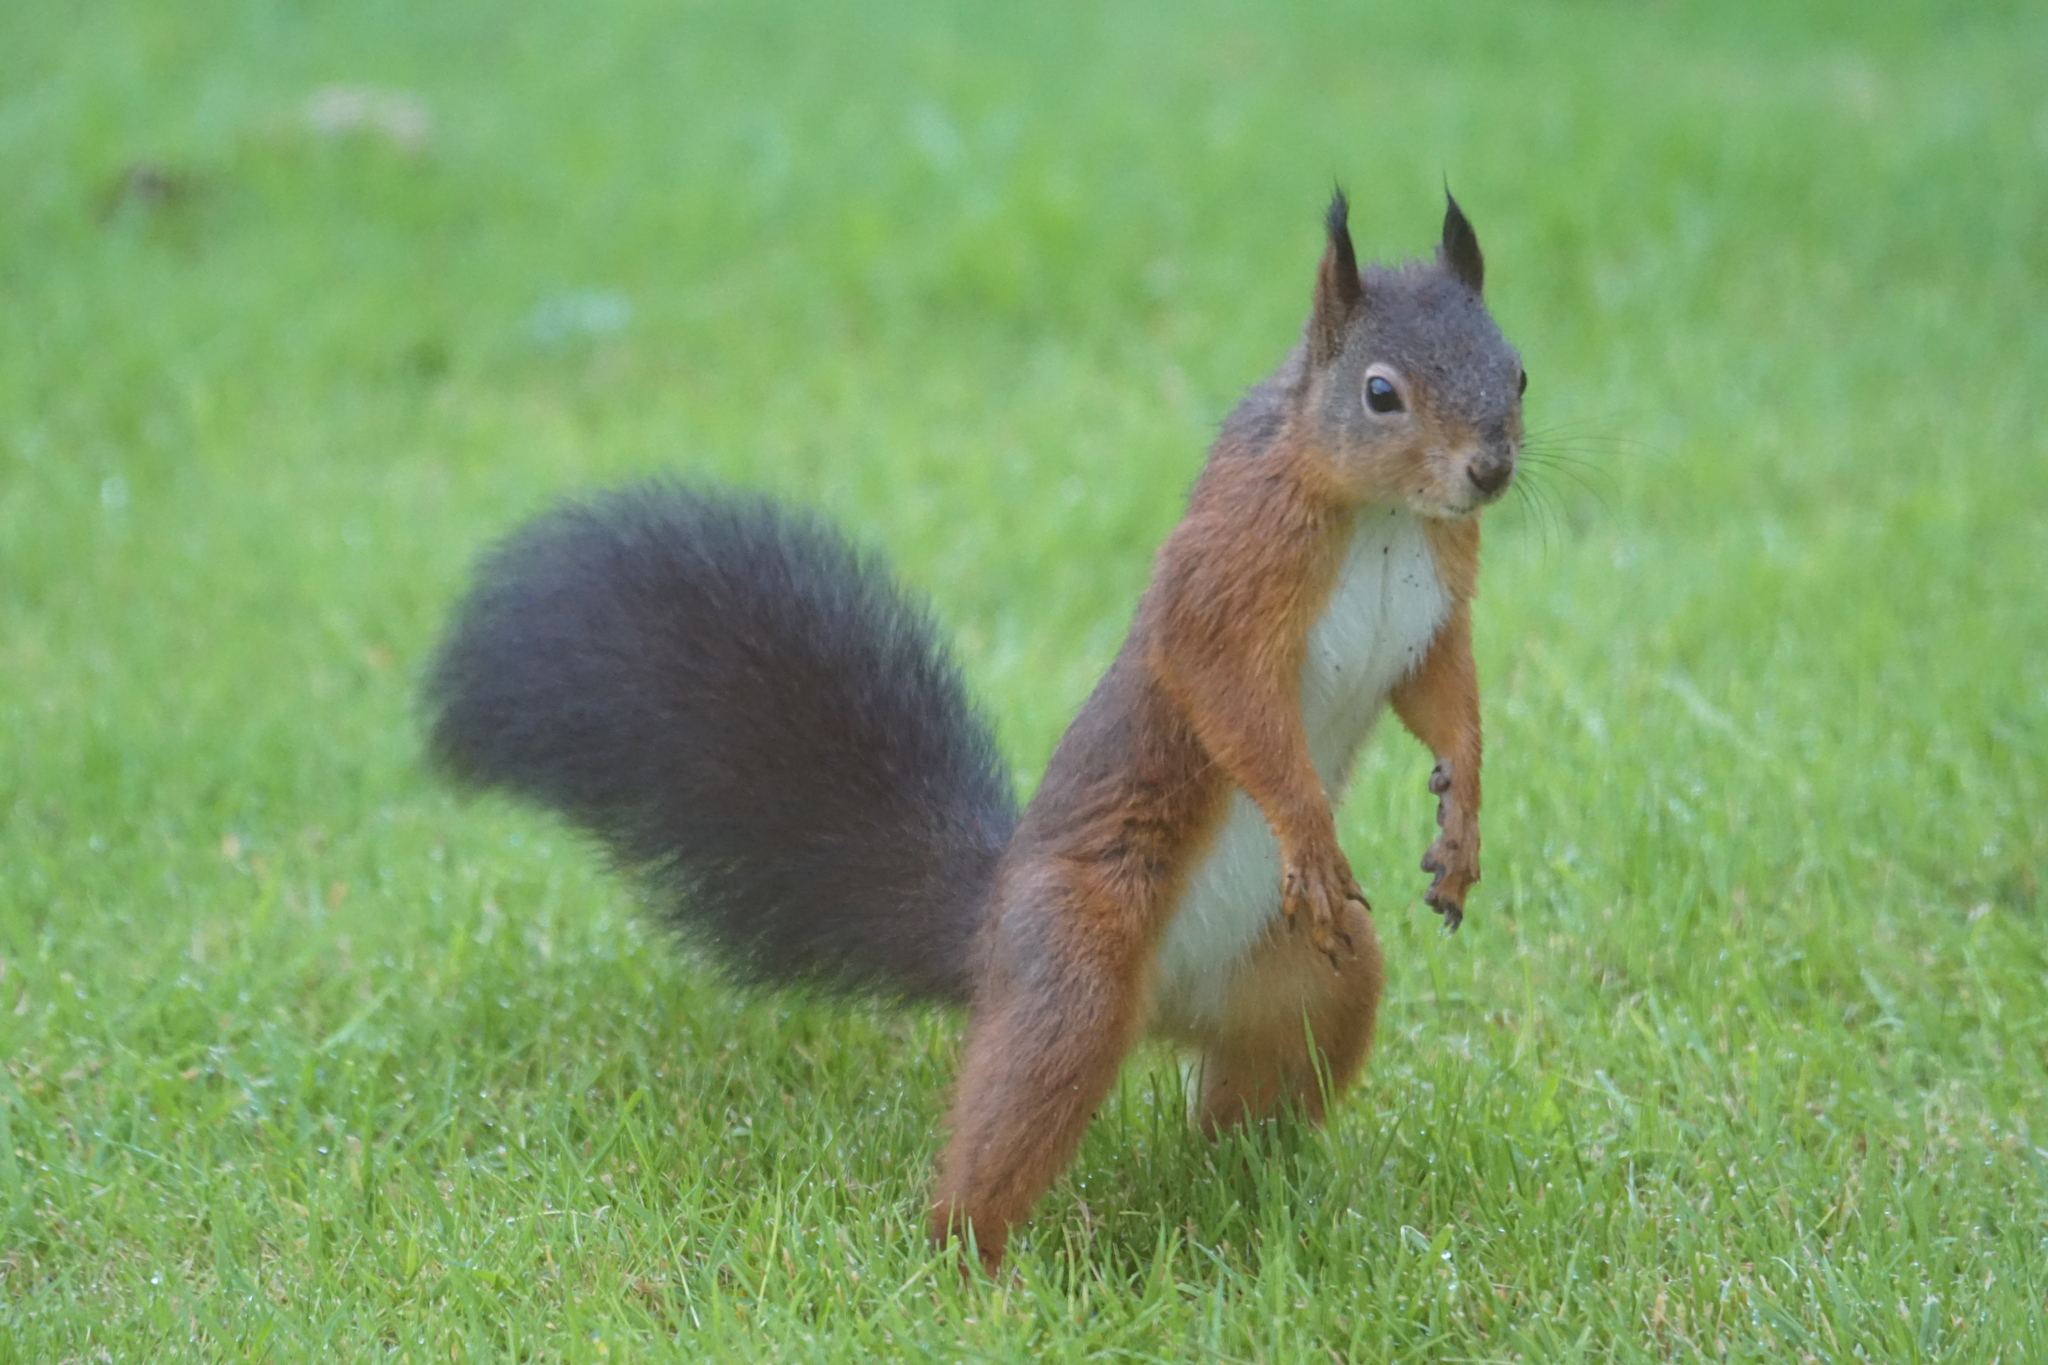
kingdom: Animalia
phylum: Chordata
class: Mammalia
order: Rodentia
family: Sciuridae
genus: Sciurus
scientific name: Sciurus vulgaris
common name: Eurasian red squirrel
